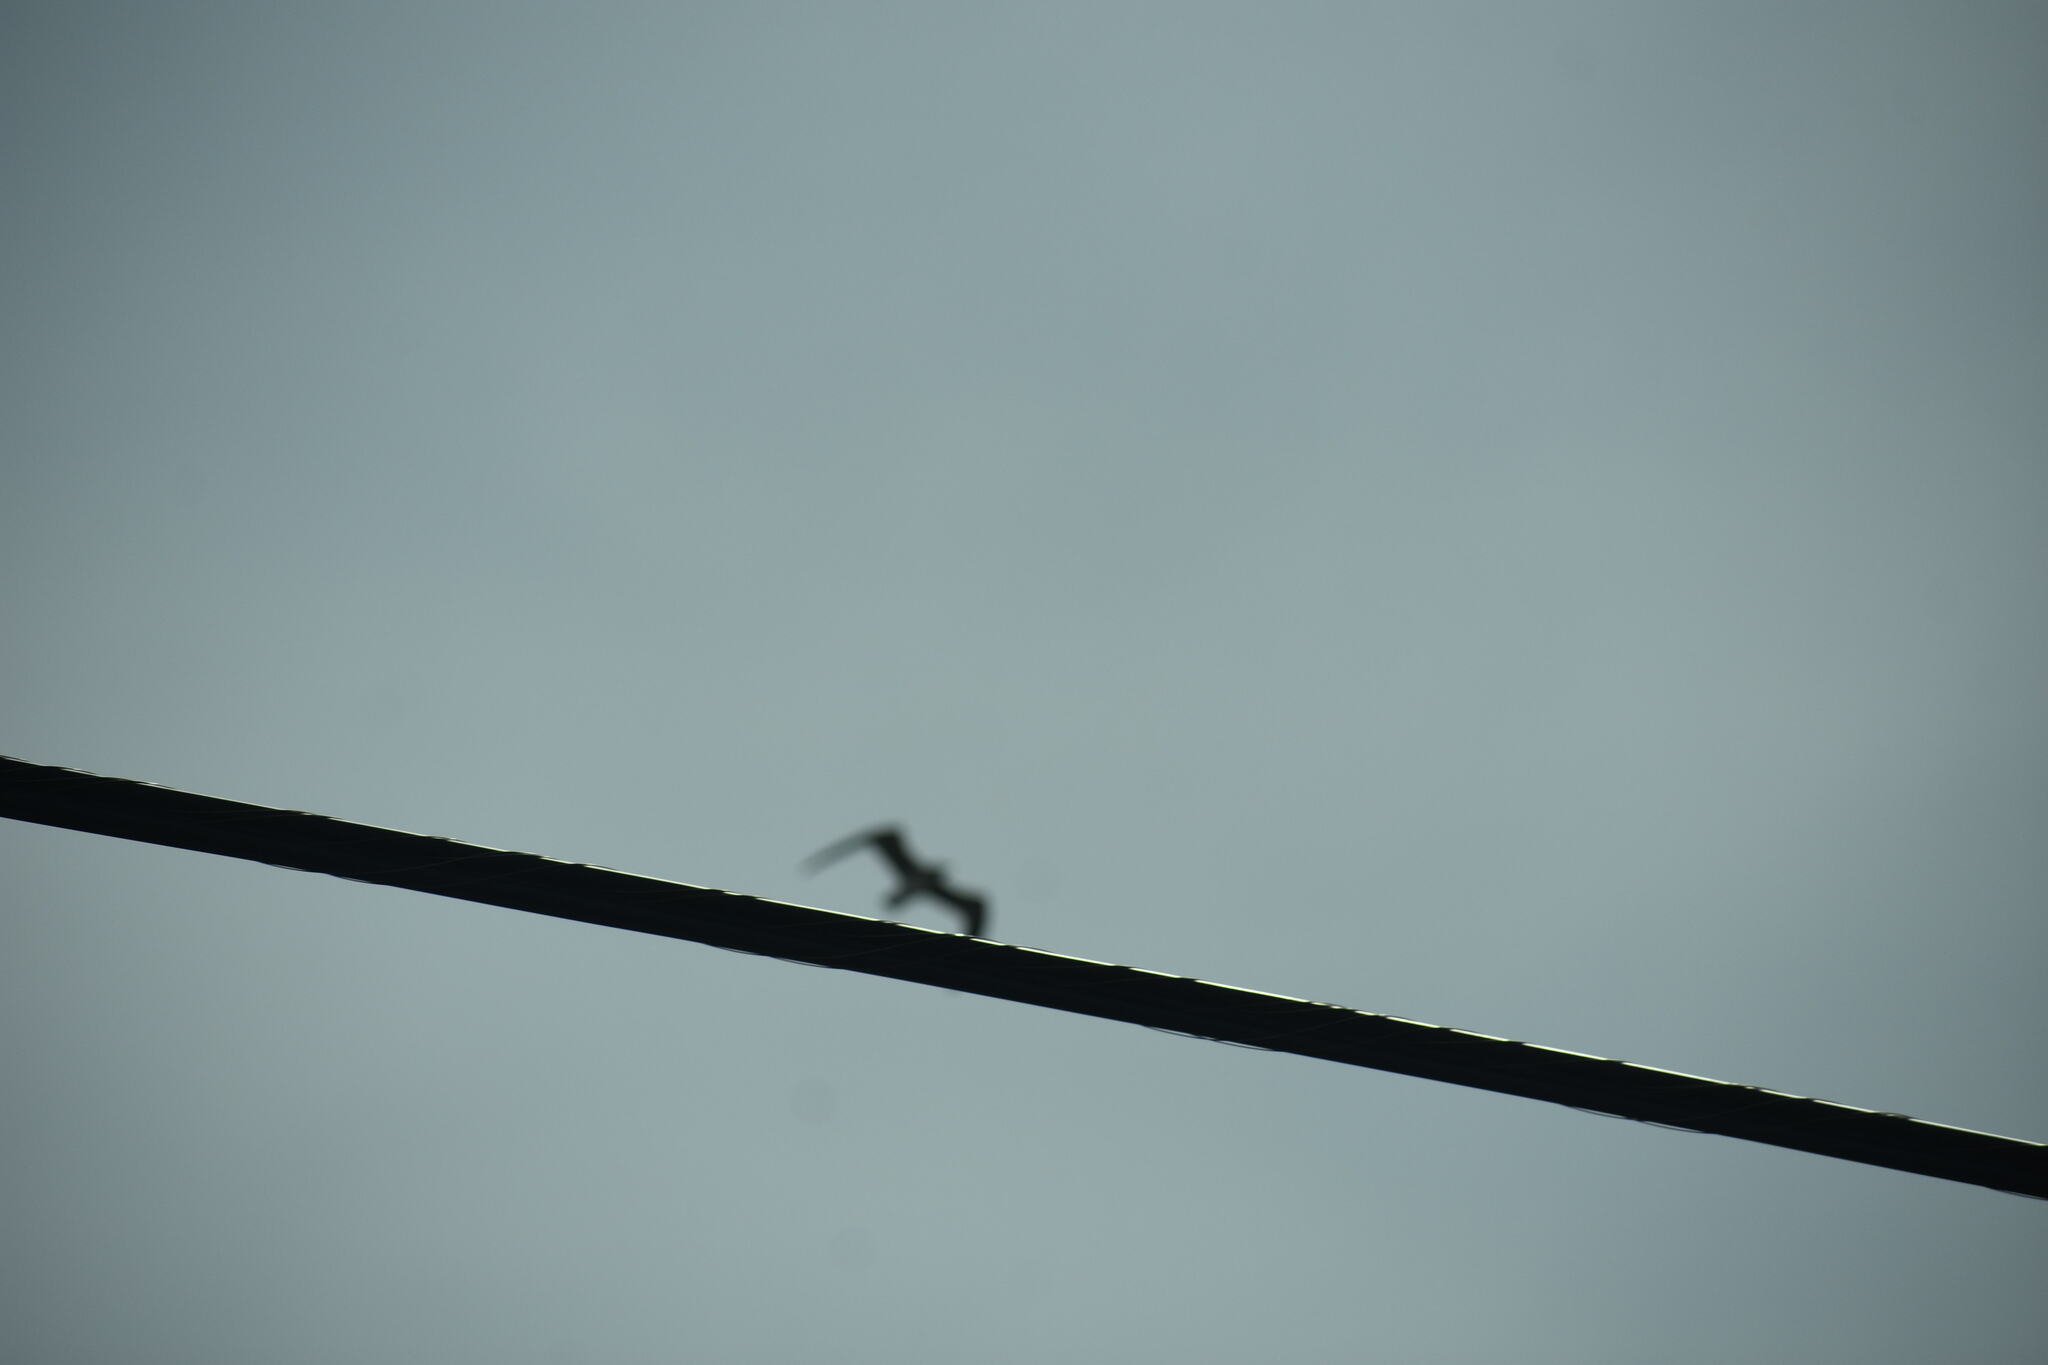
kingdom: Animalia
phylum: Chordata
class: Aves
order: Suliformes
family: Fregatidae
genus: Fregata
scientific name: Fregata magnificens
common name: Magnificent frigatebird
